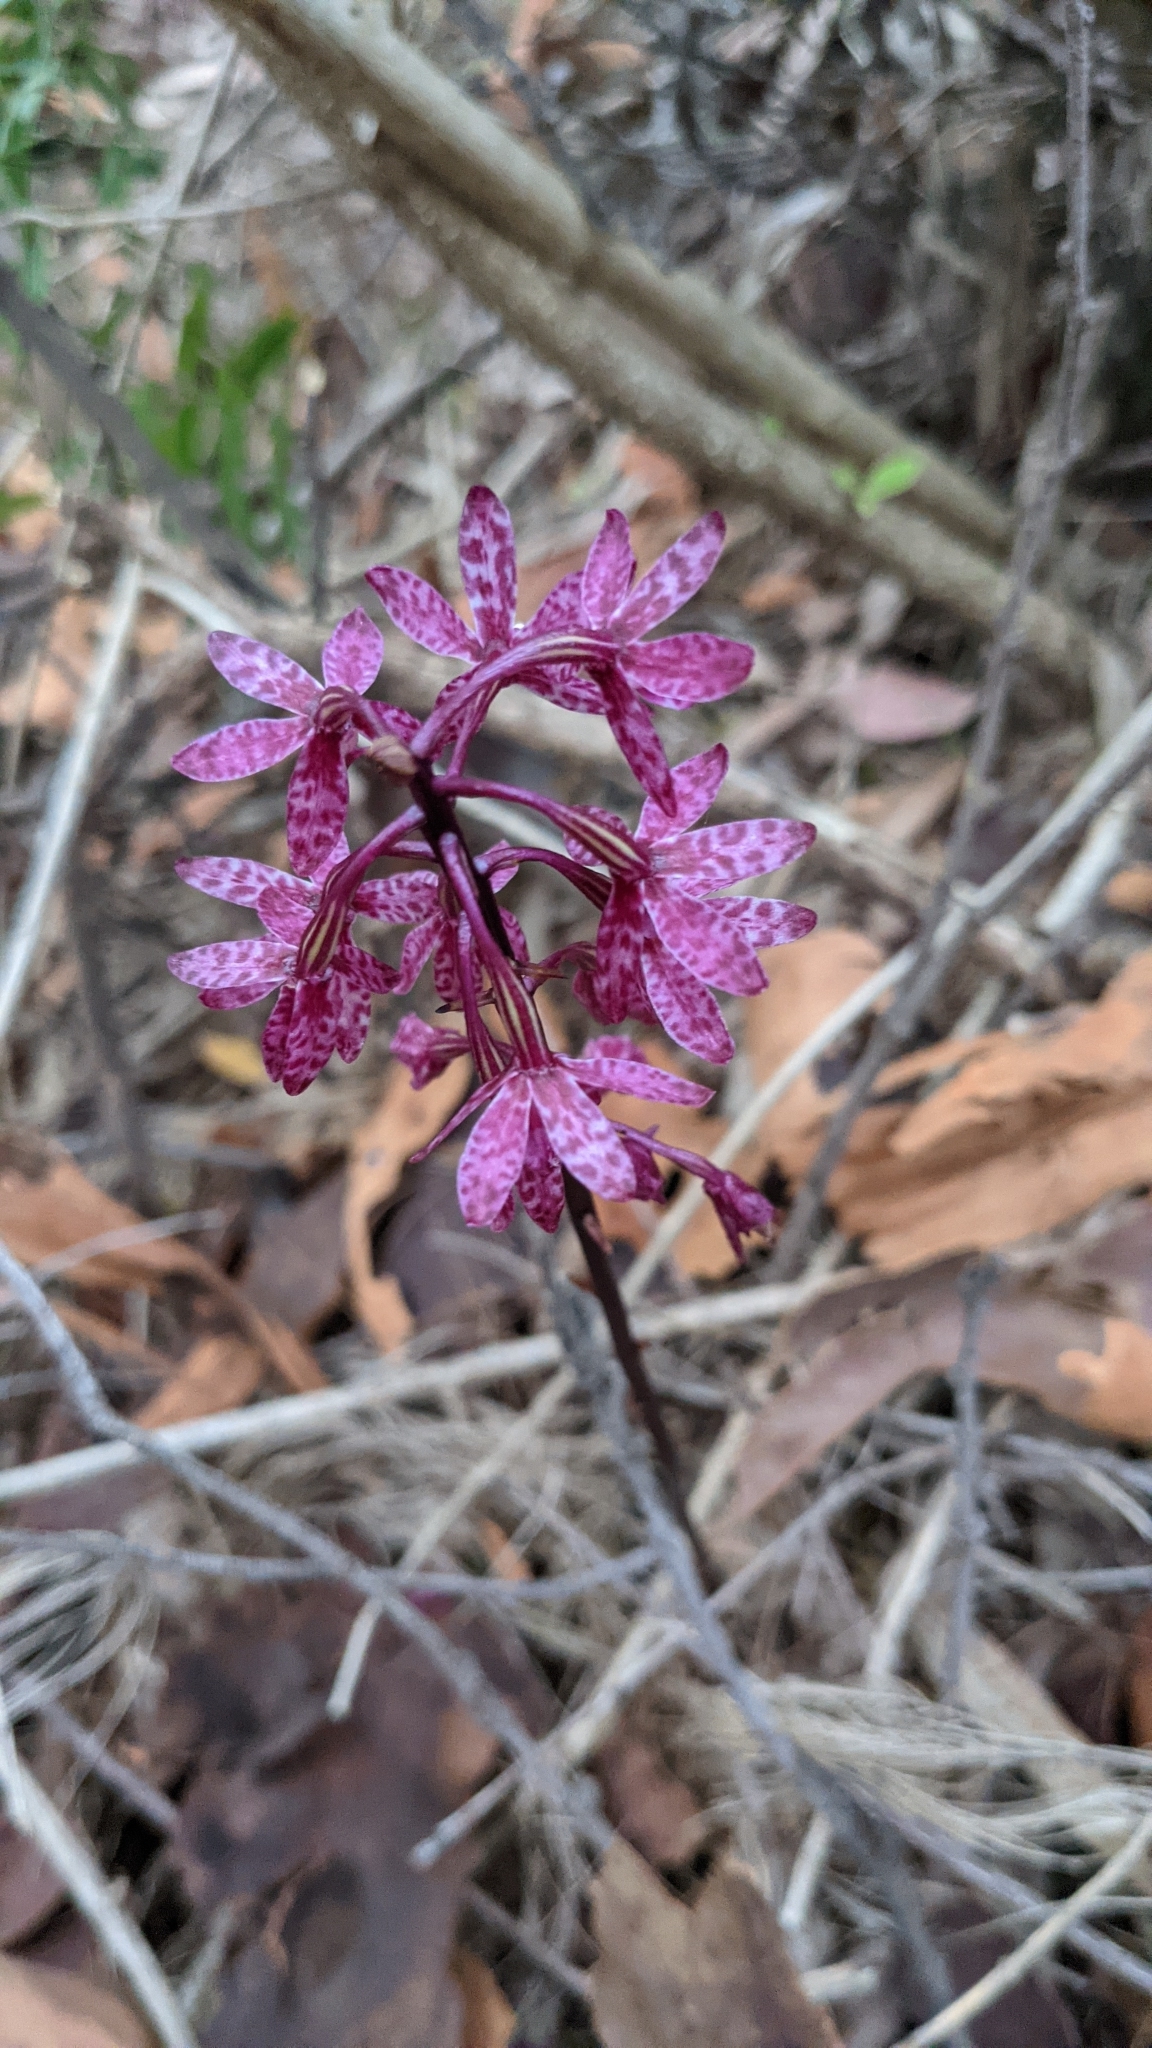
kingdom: Plantae
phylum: Tracheophyta
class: Liliopsida
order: Asparagales
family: Orchidaceae
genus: Dipodium
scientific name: Dipodium squamatum
